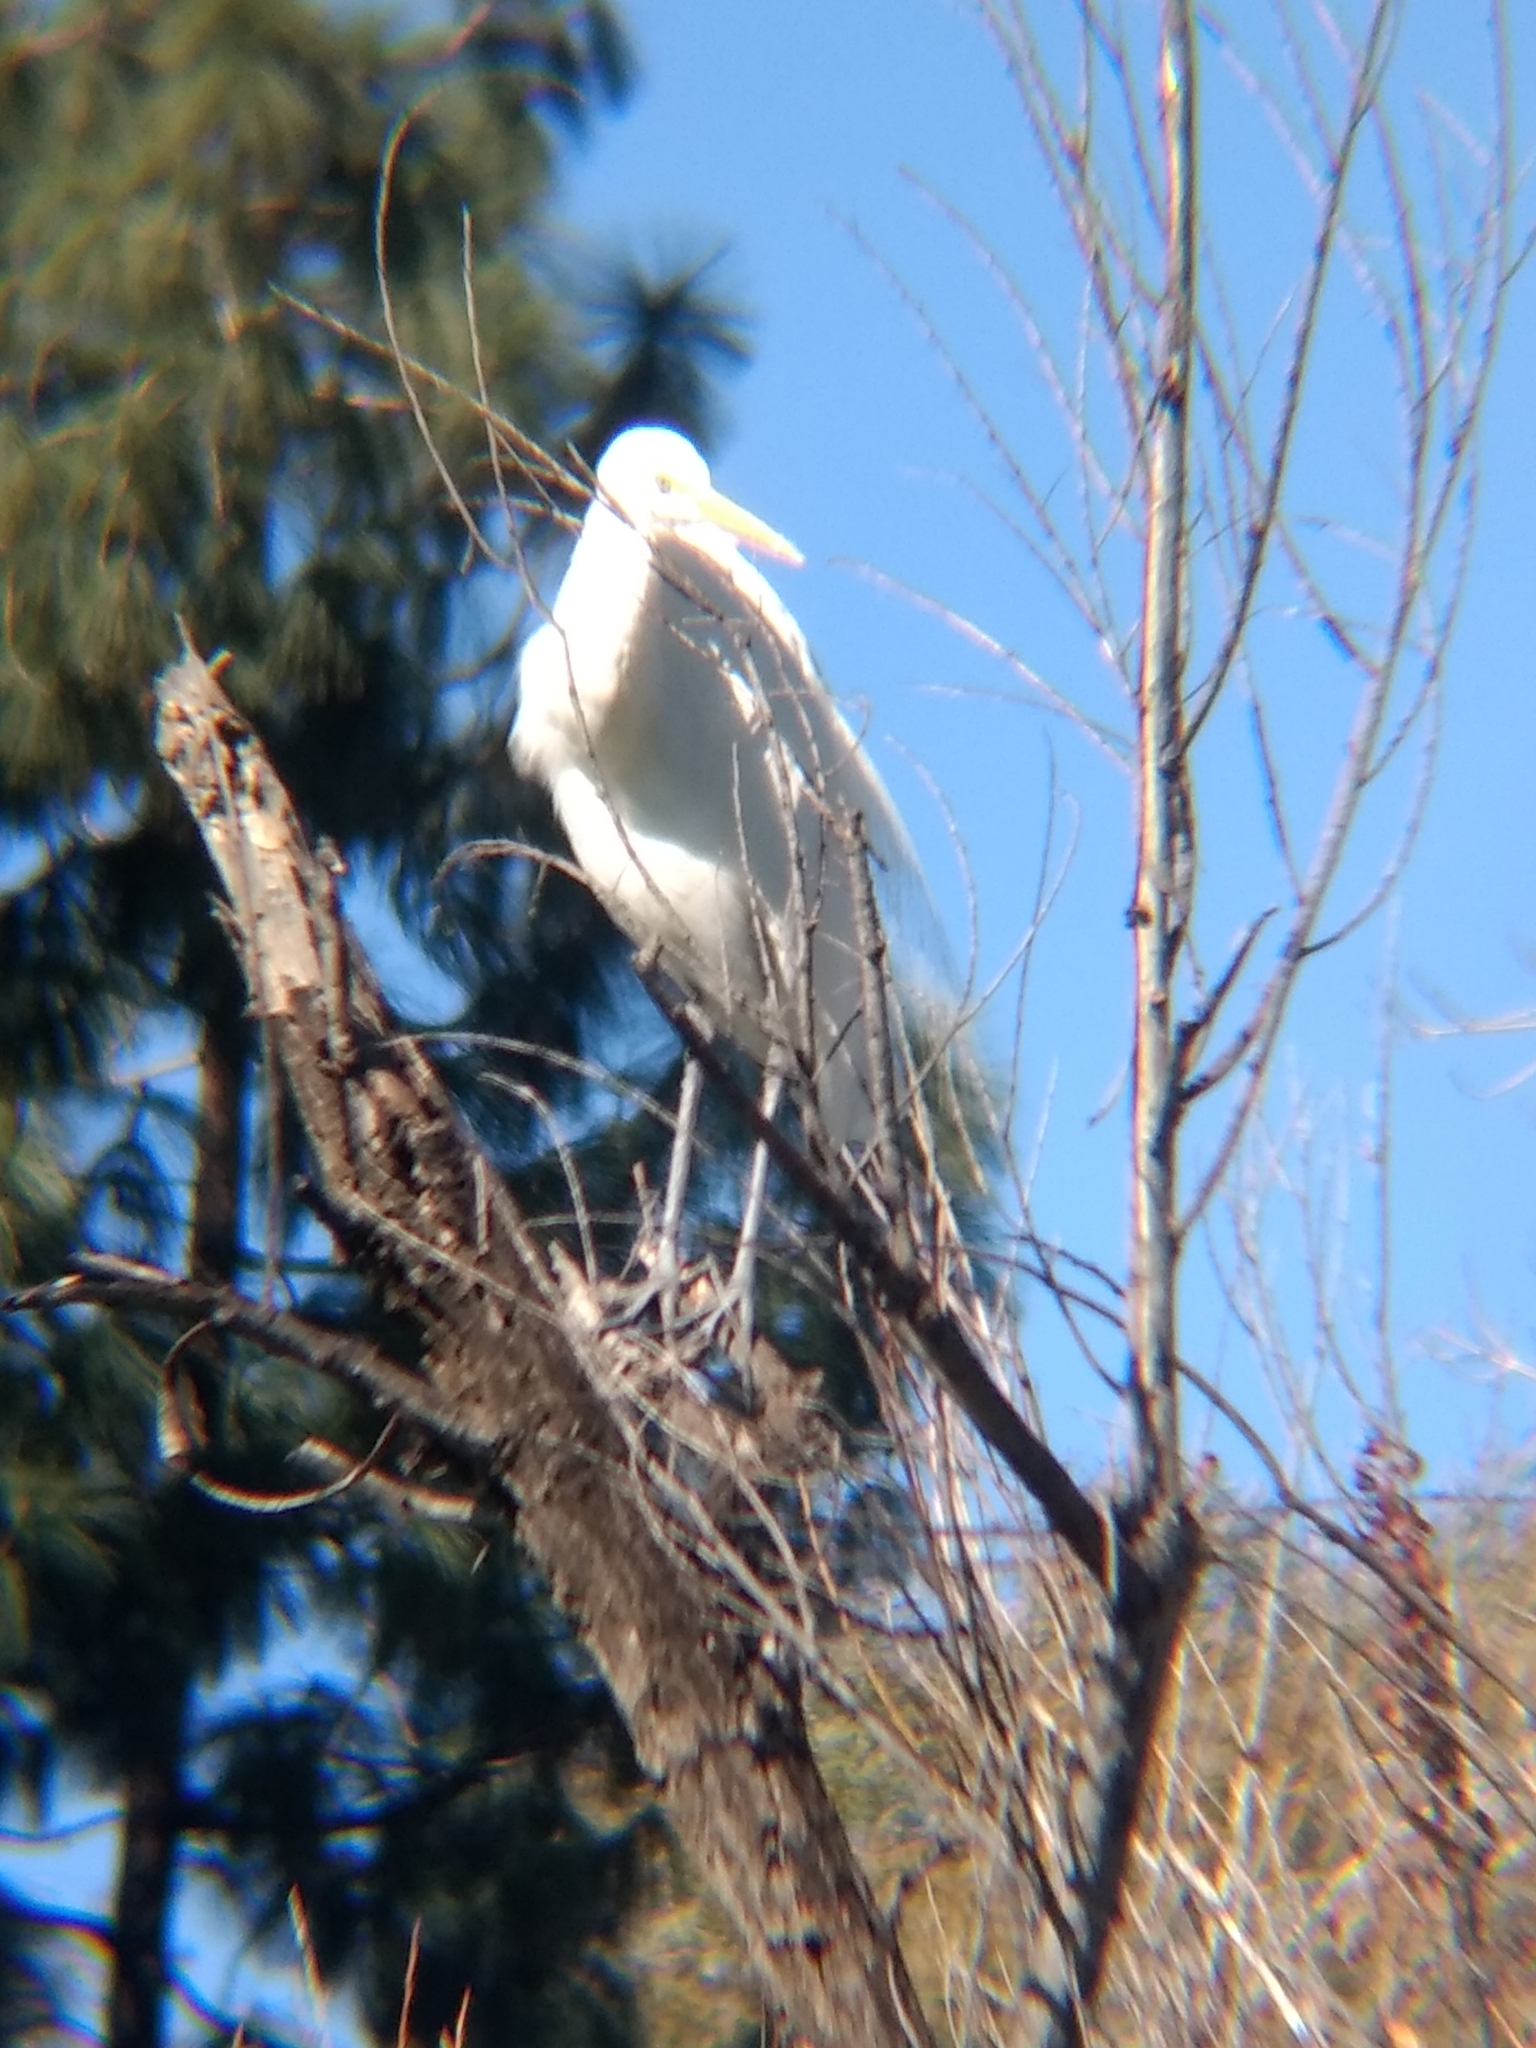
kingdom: Animalia
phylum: Chordata
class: Aves
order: Pelecaniformes
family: Ardeidae
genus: Ardea
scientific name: Ardea alba
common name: Great egret
